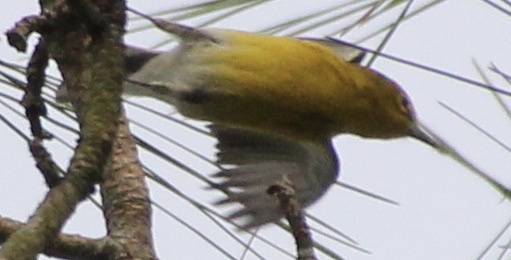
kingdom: Animalia
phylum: Chordata
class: Aves
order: Passeriformes
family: Parulidae
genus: Setophaga
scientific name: Setophaga pinus
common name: Pine warbler
